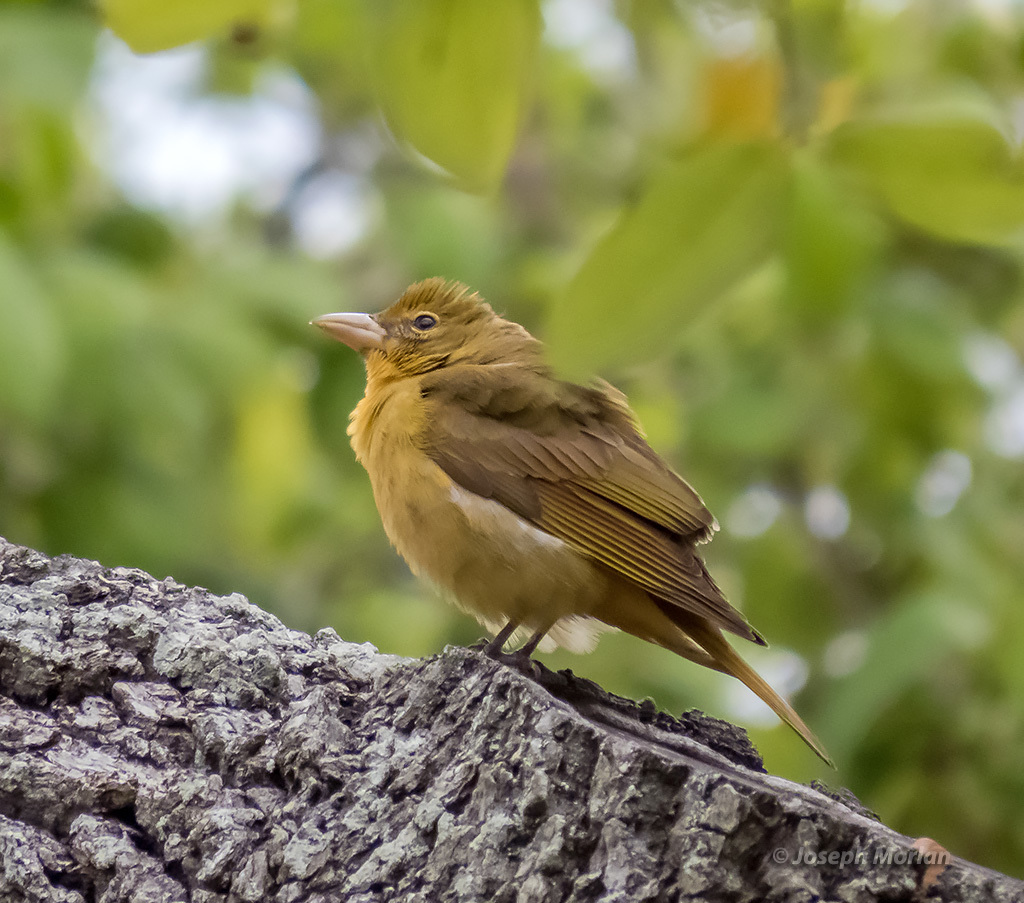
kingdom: Animalia
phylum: Chordata
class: Aves
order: Passeriformes
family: Cardinalidae
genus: Piranga
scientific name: Piranga rubra
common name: Summer tanager
